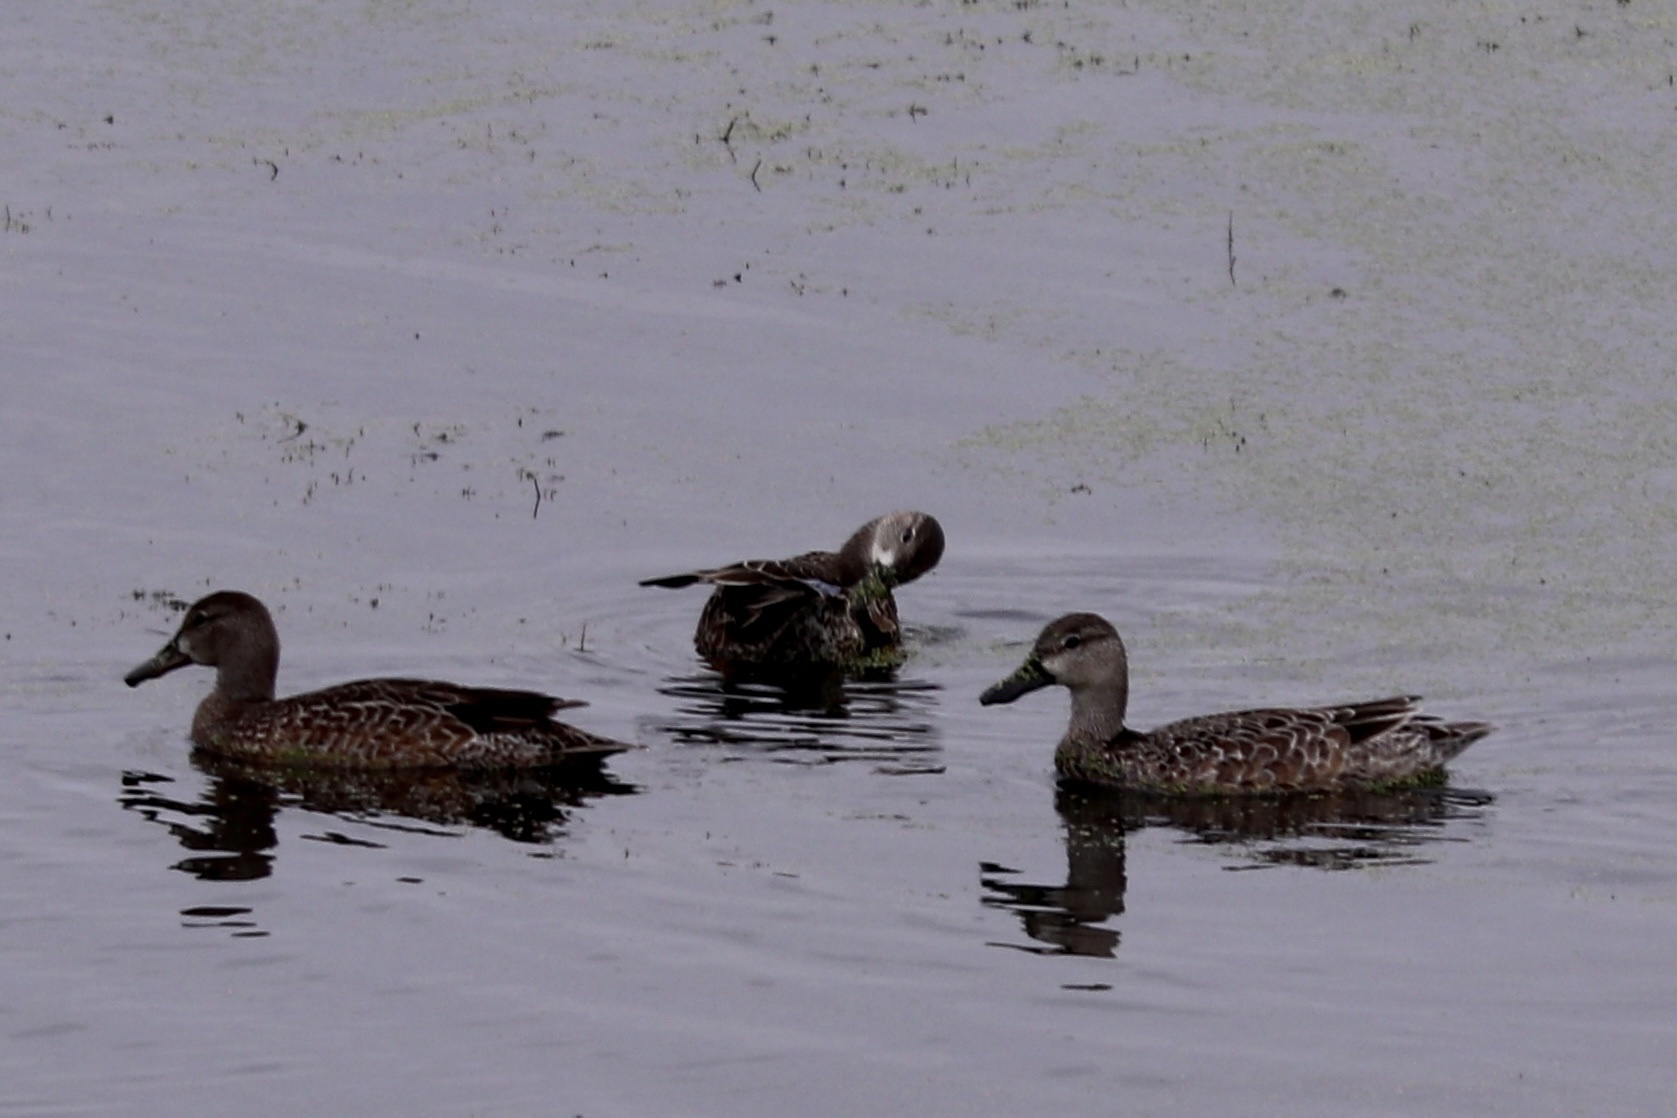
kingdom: Animalia
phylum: Chordata
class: Aves
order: Anseriformes
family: Anatidae
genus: Spatula
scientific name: Spatula discors
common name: Blue-winged teal
